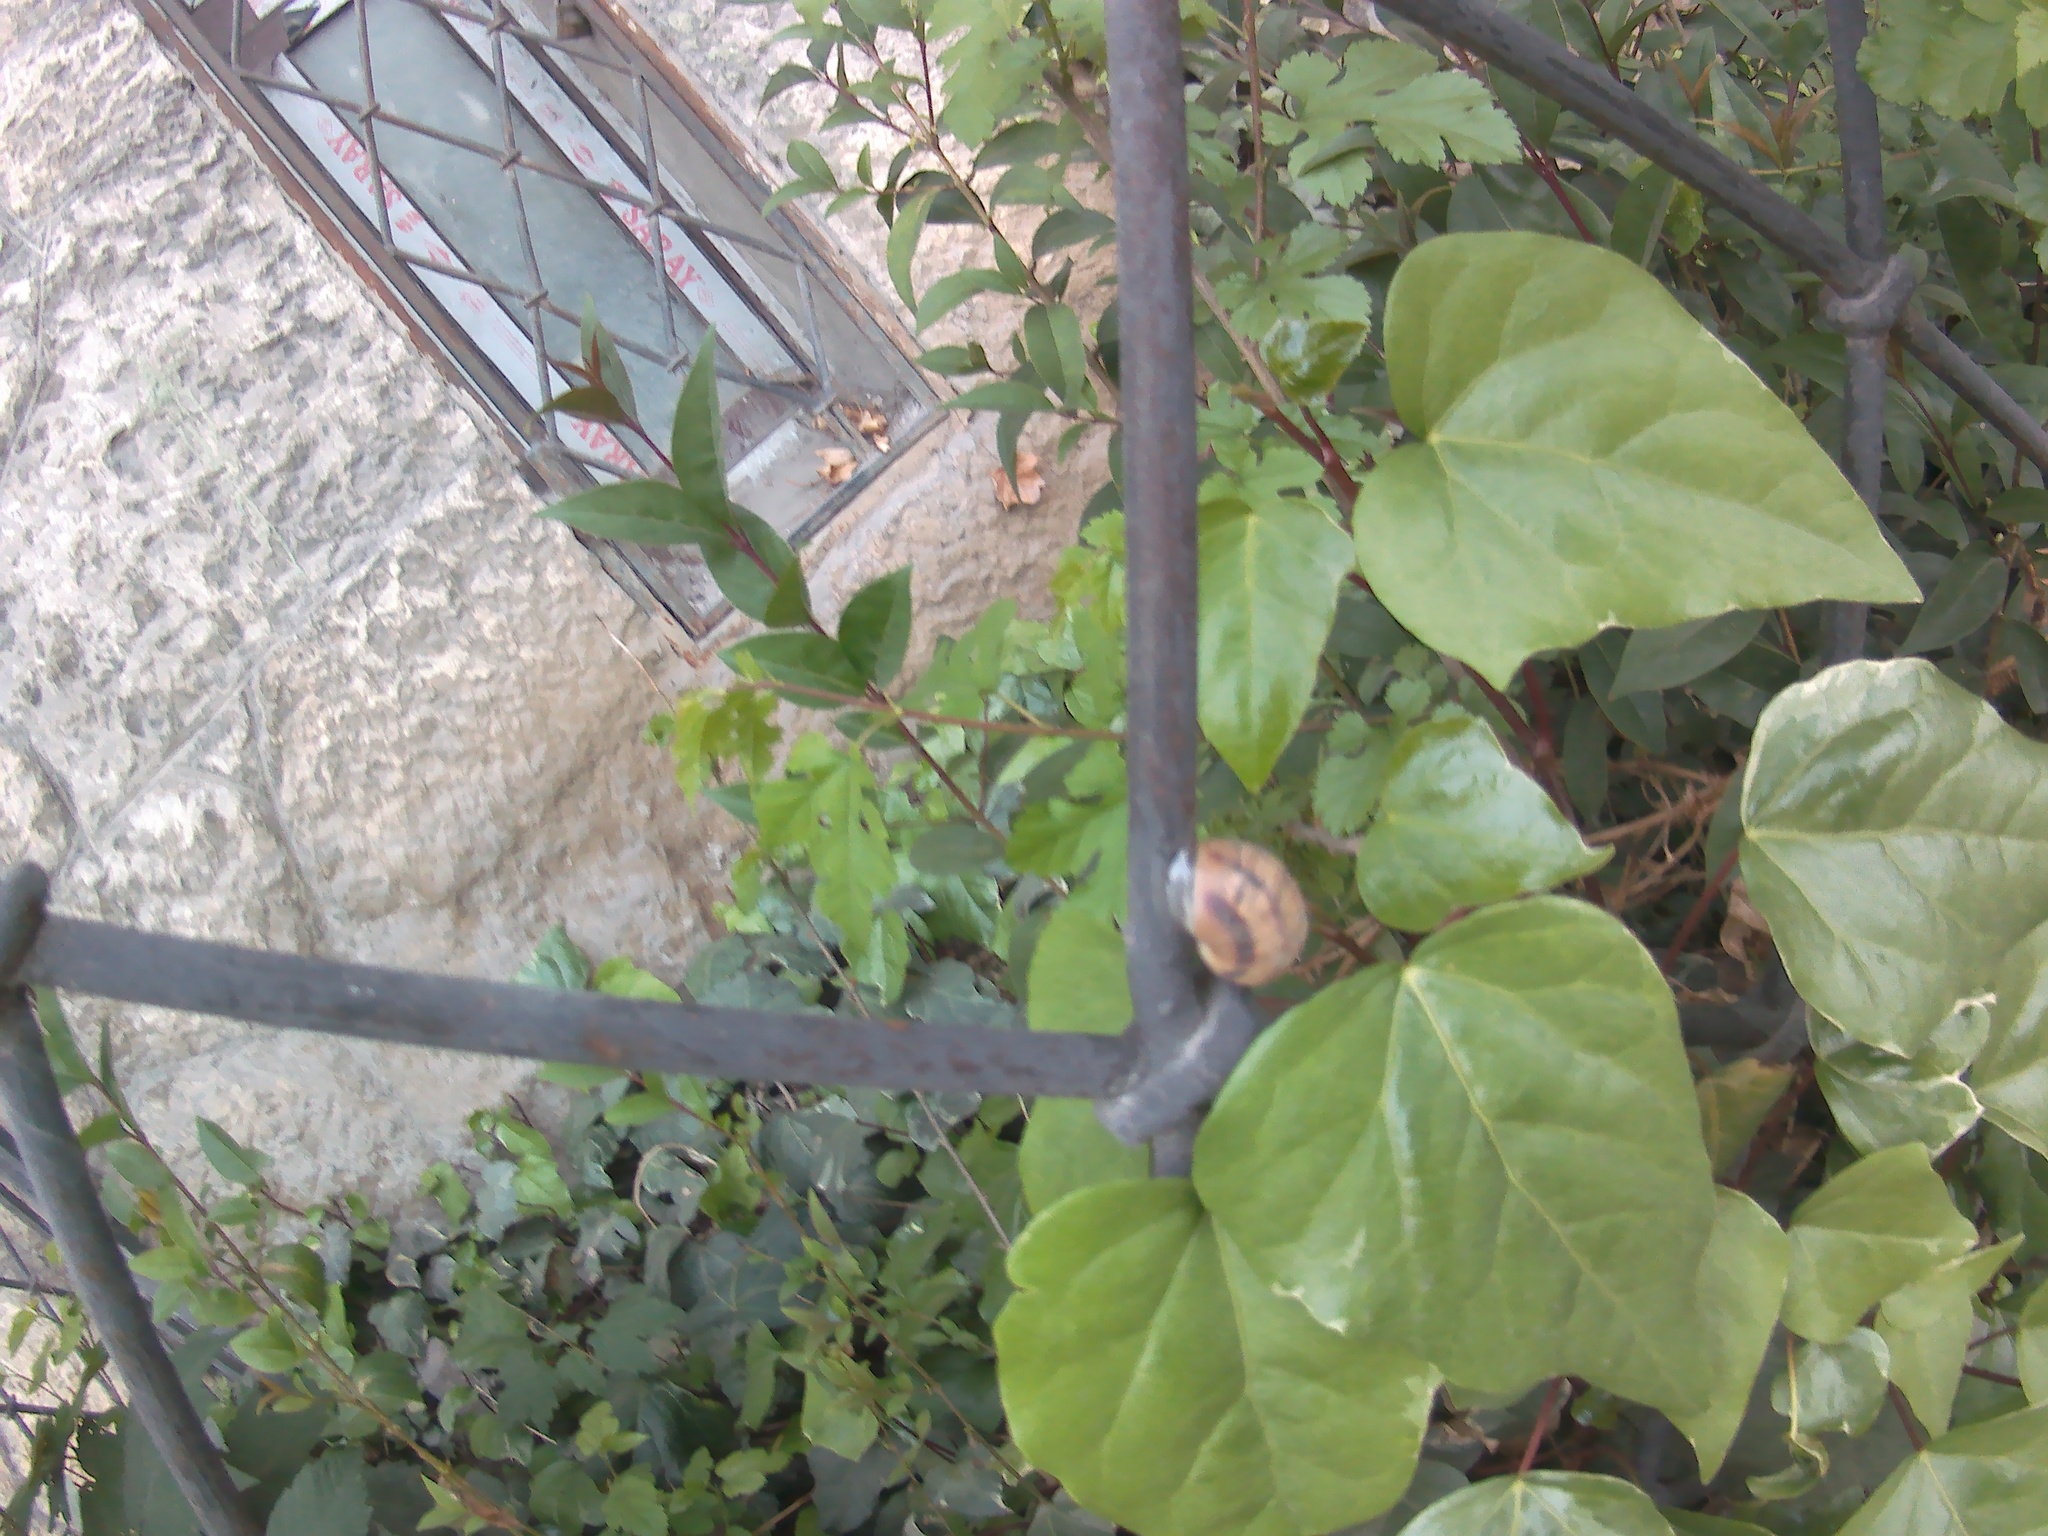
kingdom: Animalia
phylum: Mollusca
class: Gastropoda
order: Stylommatophora
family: Helicidae
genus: Helix
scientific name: Helix albescens
